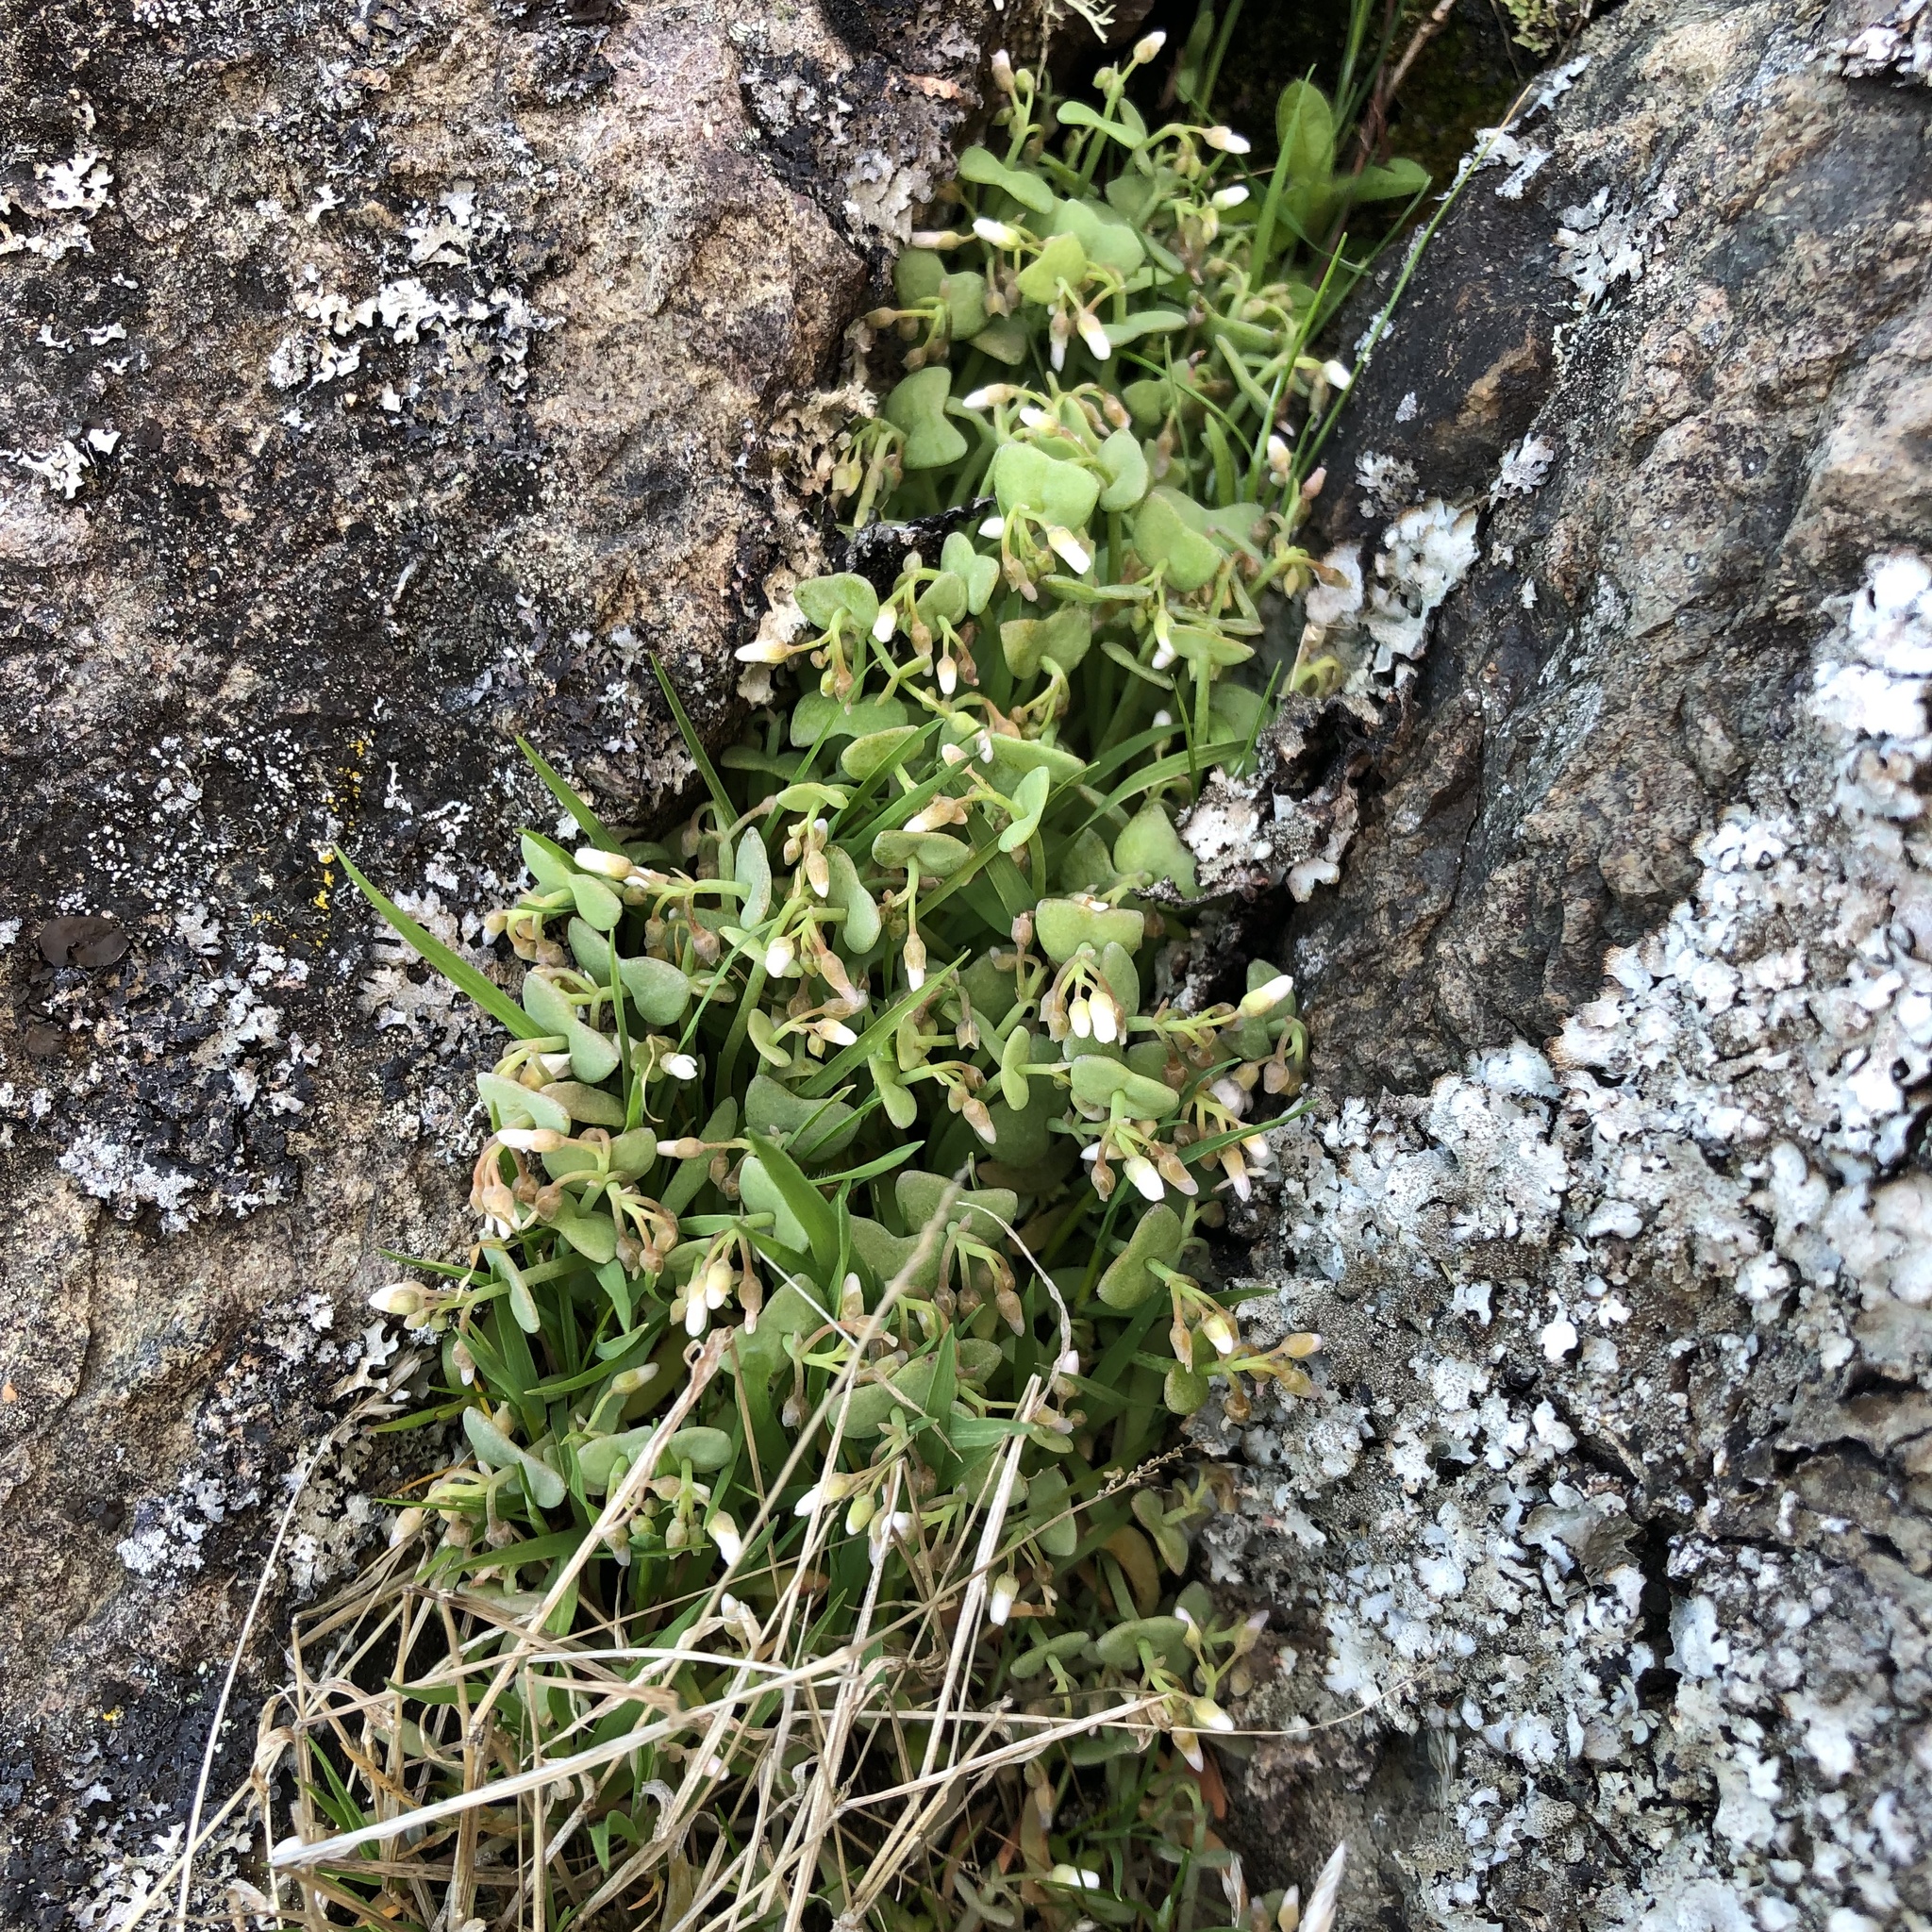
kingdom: Plantae
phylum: Tracheophyta
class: Magnoliopsida
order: Caryophyllales
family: Montiaceae
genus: Claytonia
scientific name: Claytonia exigua
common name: Pale spring beauty
